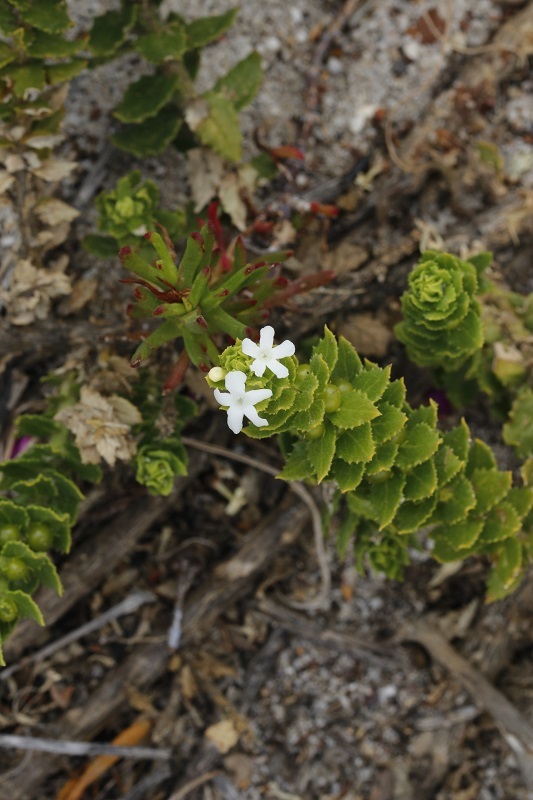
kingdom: Plantae
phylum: Tracheophyta
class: Magnoliopsida
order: Lamiales
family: Scrophulariaceae
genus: Oftia
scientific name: Oftia africana
